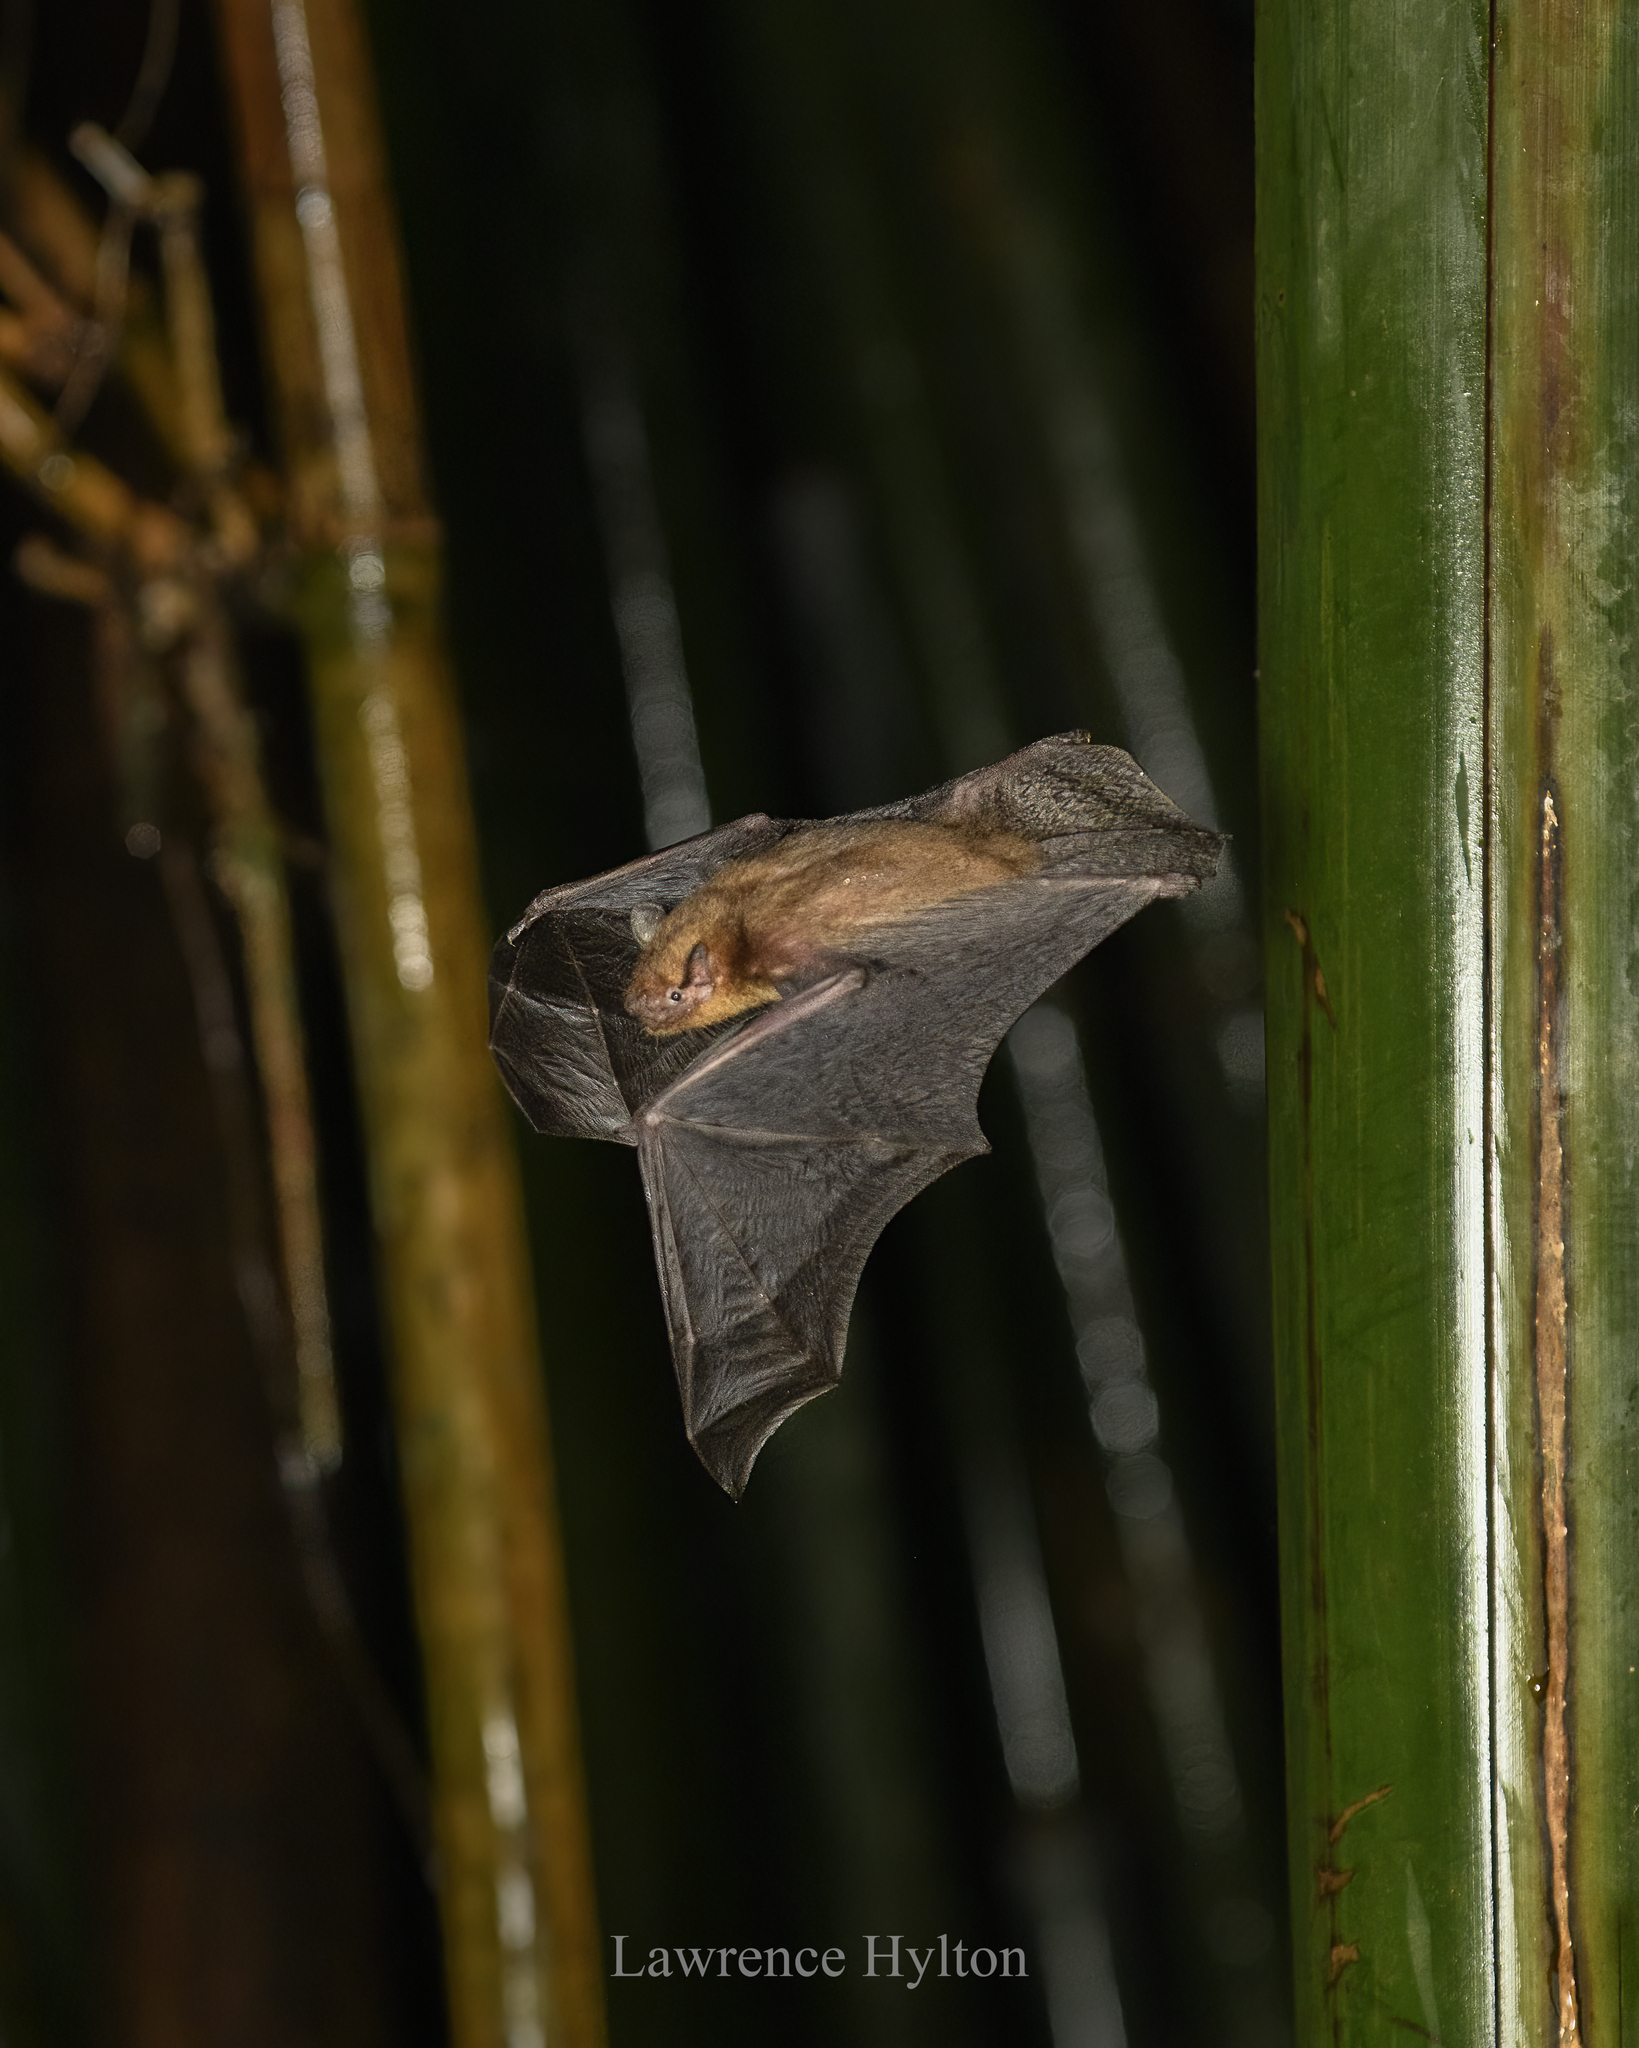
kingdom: Animalia
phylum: Chordata
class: Mammalia
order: Chiroptera
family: Vespertilionidae
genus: Tylonycteris
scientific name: Tylonycteris fulvida
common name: Amber bamboo bat
